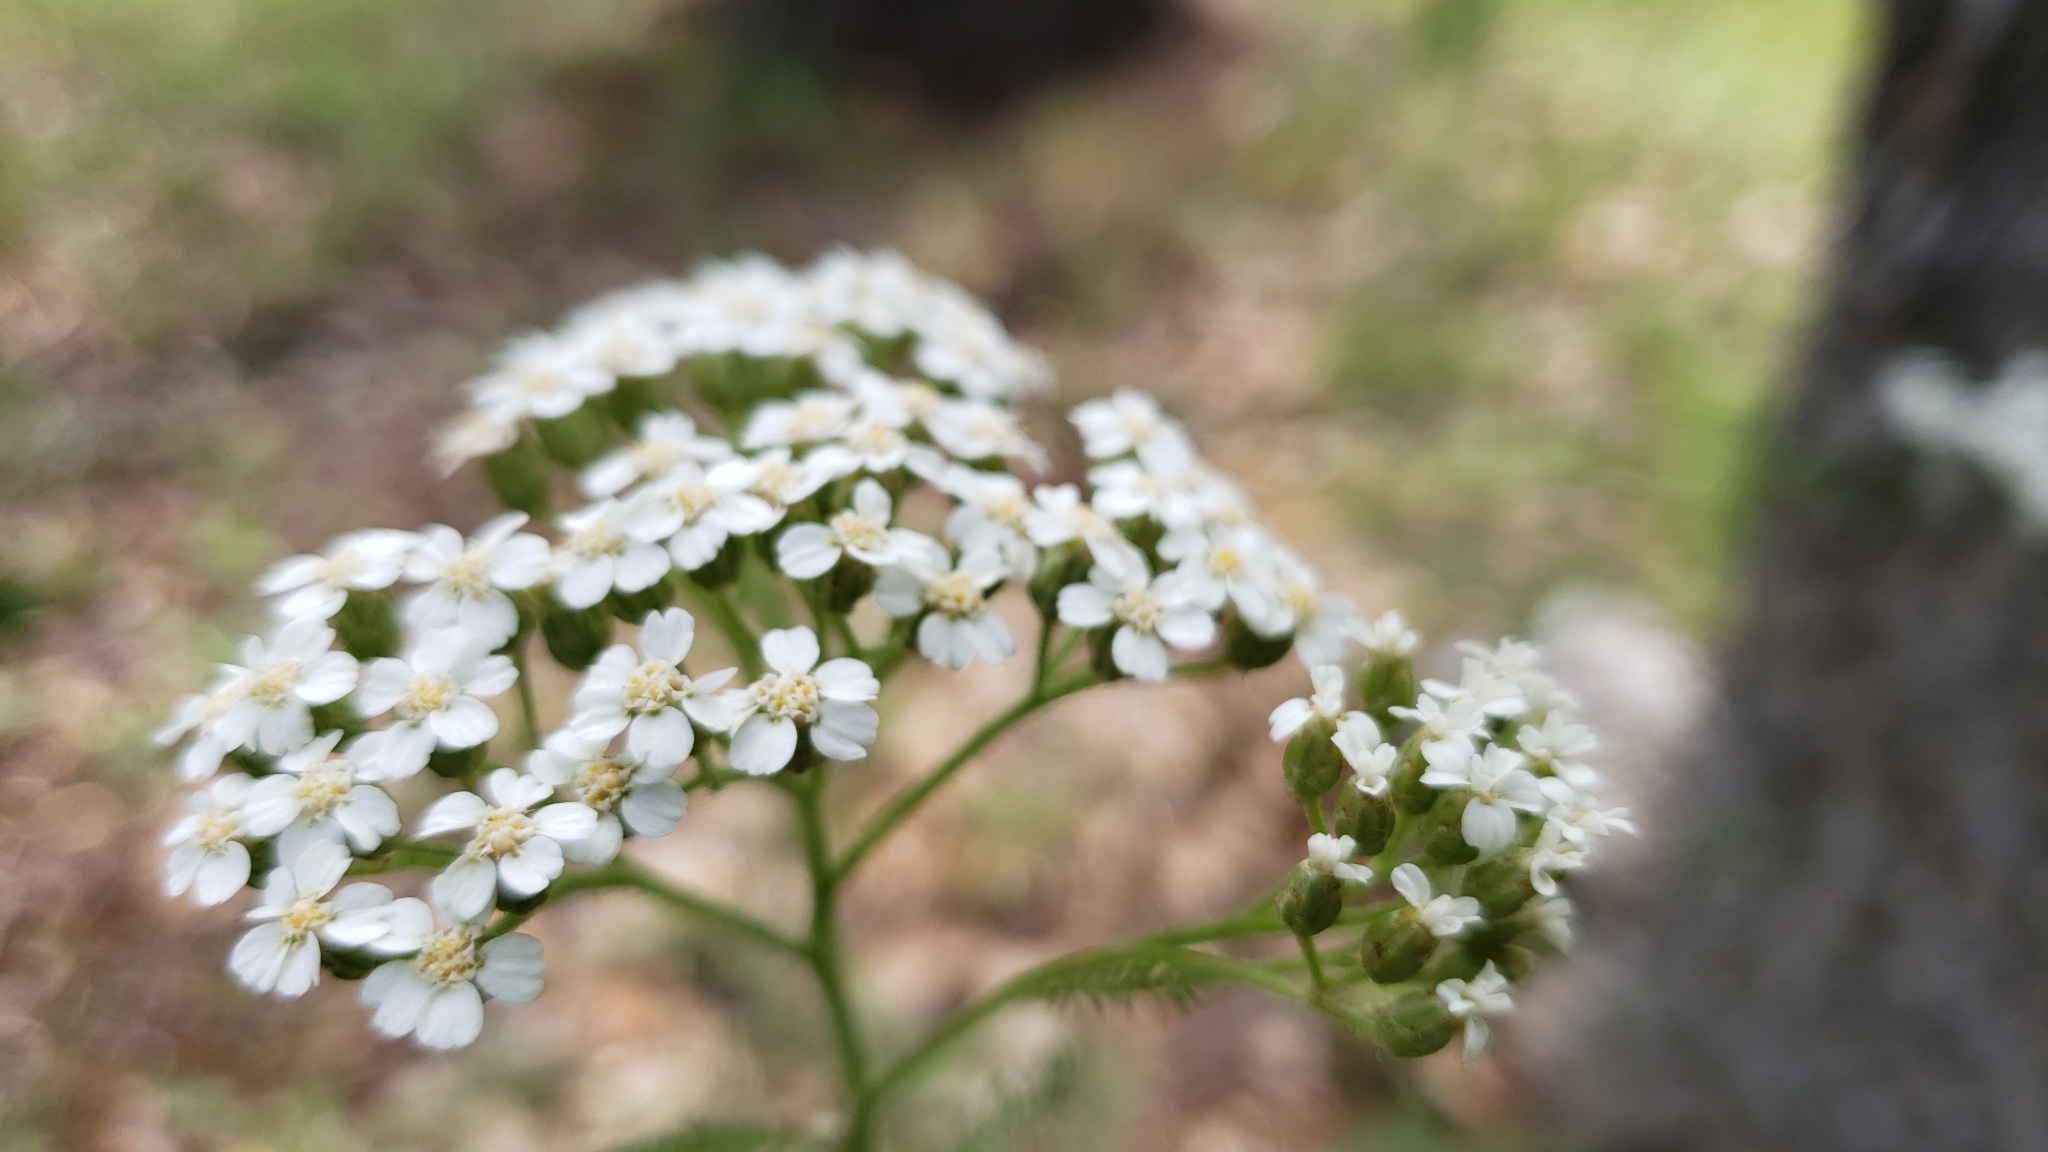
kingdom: Plantae
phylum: Tracheophyta
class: Magnoliopsida
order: Asterales
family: Asteraceae
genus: Achillea
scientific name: Achillea millefolium
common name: Yarrow
